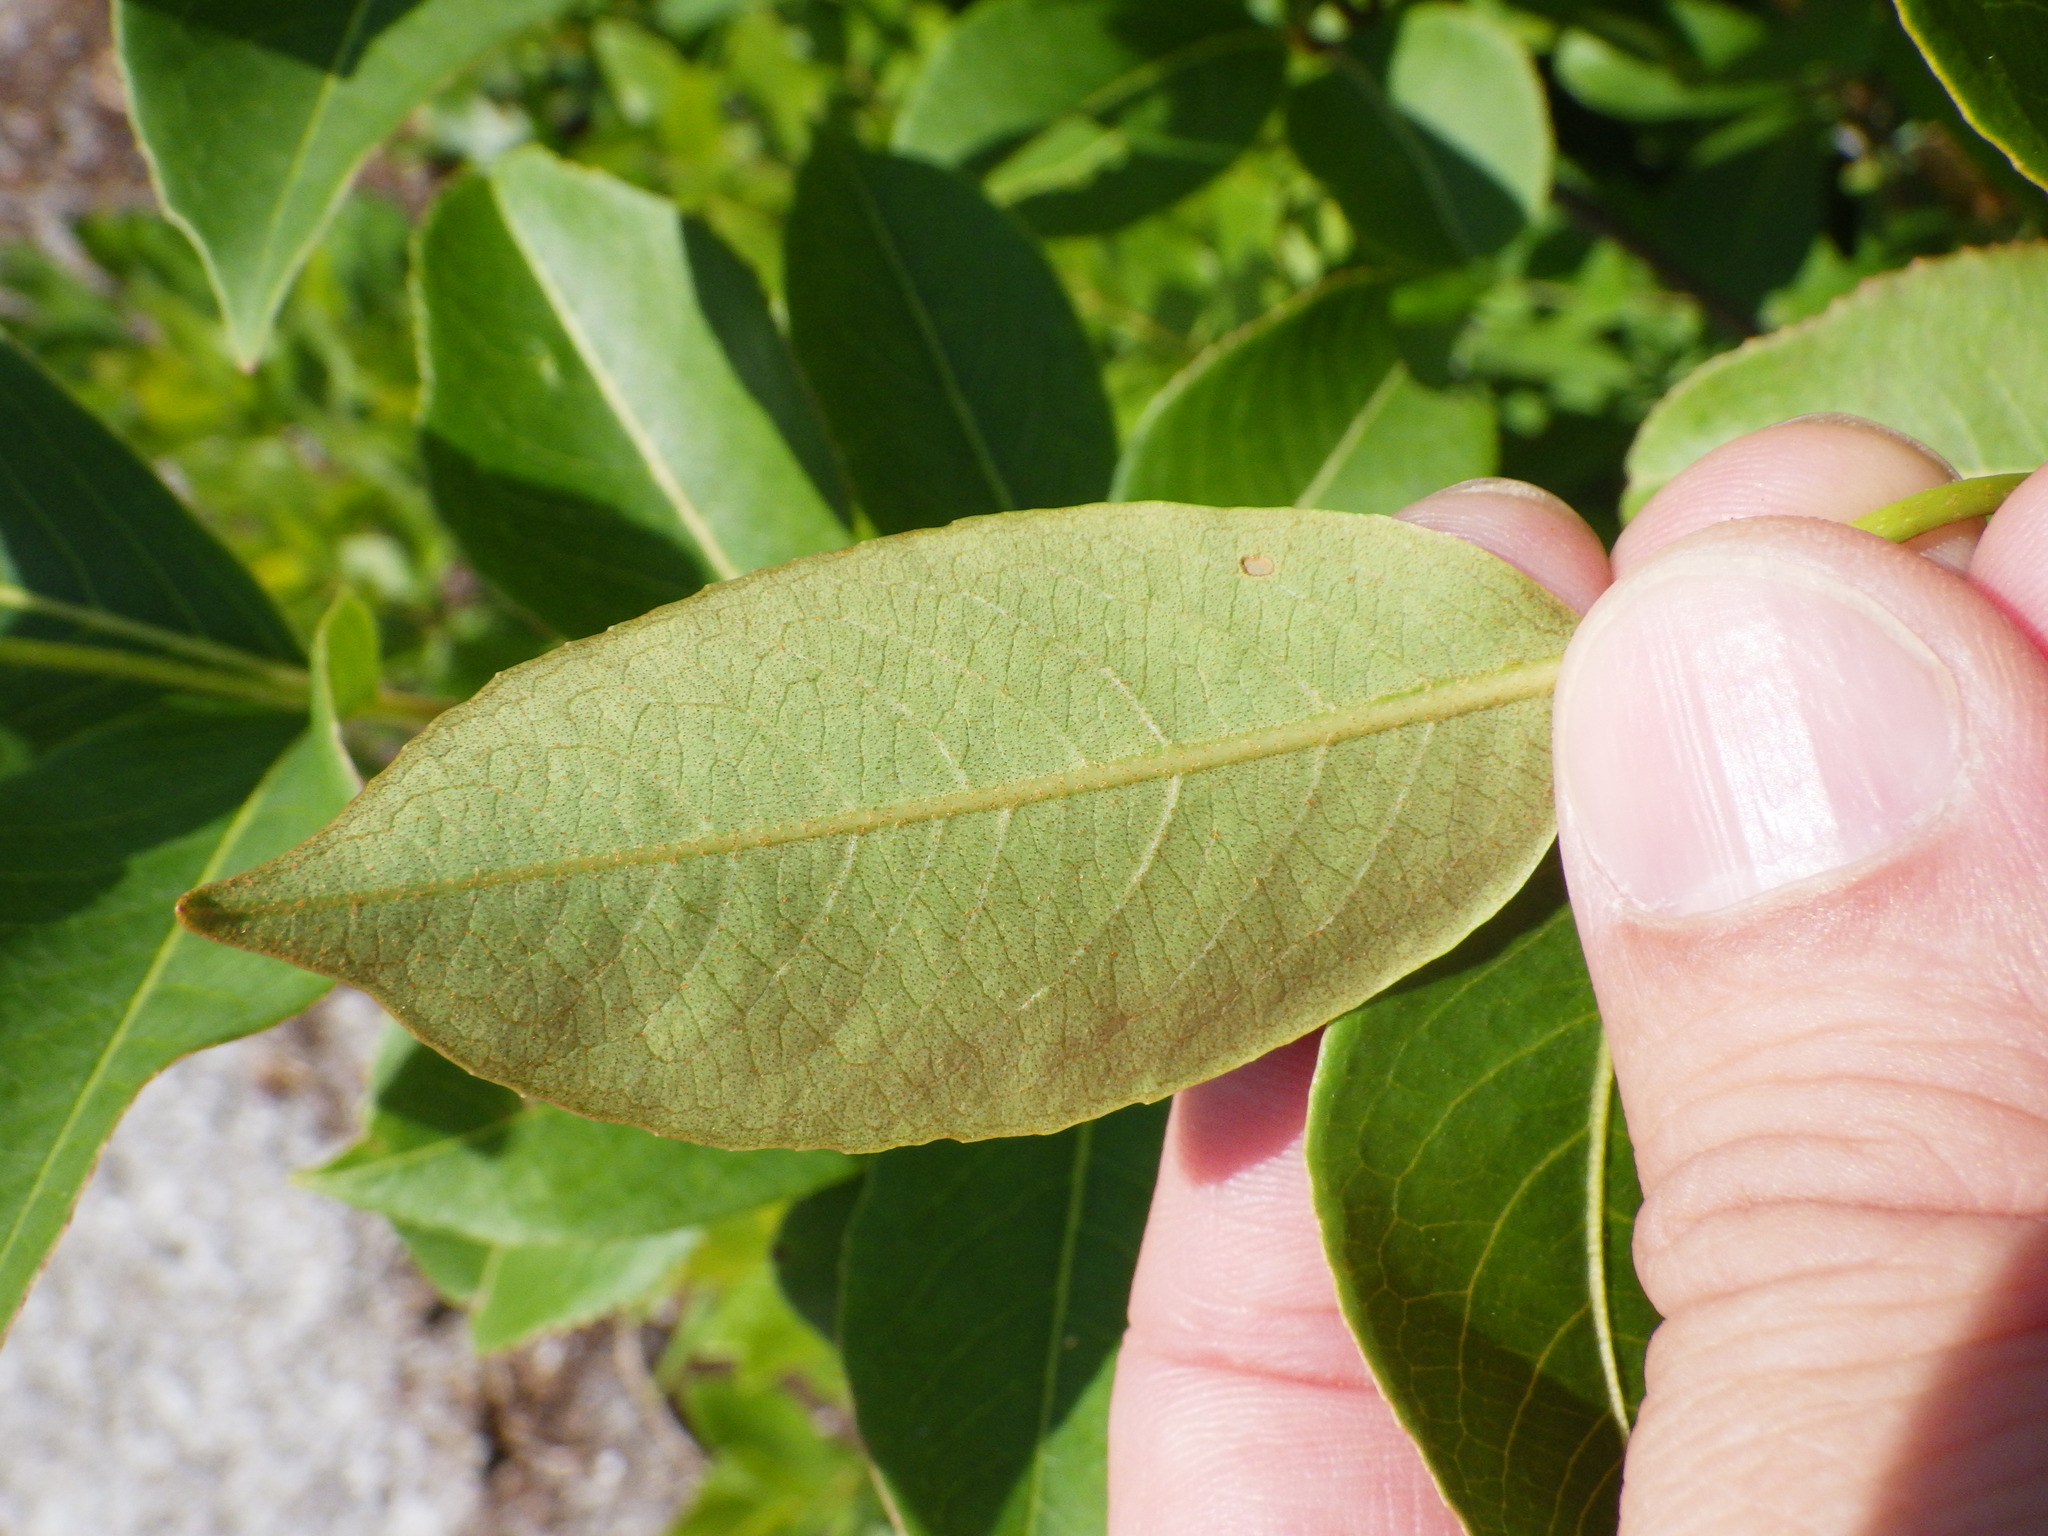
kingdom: Plantae
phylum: Tracheophyta
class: Magnoliopsida
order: Dipsacales
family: Viburnaceae
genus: Viburnum
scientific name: Viburnum cassinoides
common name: Swamp haw
